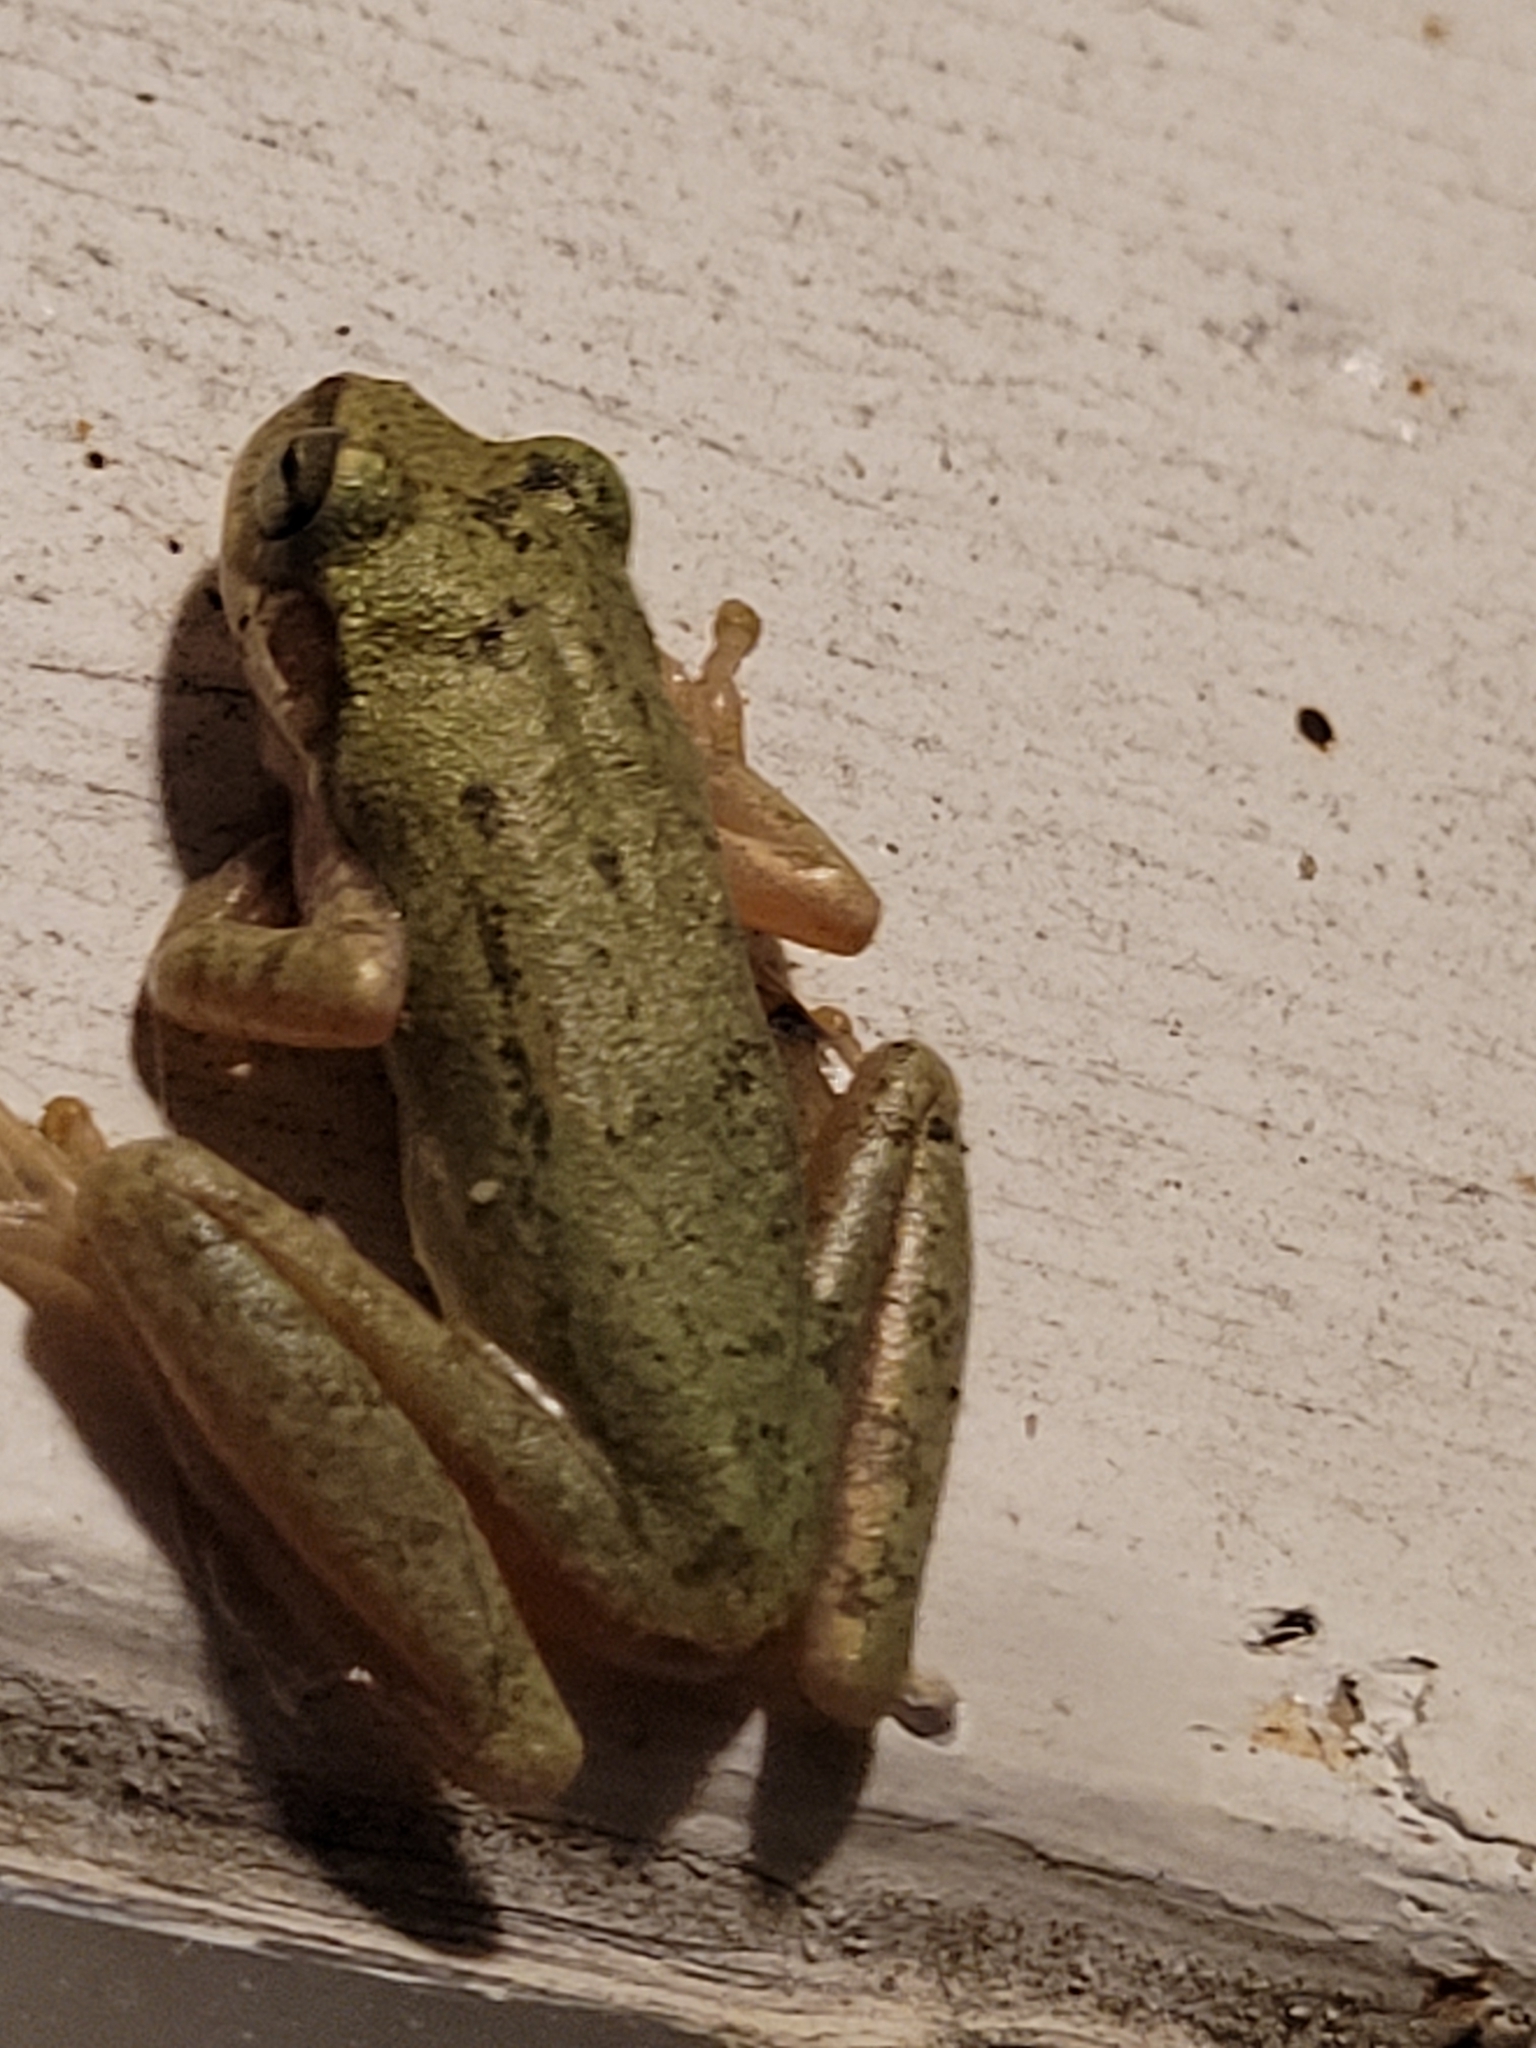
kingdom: Animalia
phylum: Chordata
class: Amphibia
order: Anura
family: Hylidae
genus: Dryophytes
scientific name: Dryophytes squirellus
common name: Squirrel treefrog
